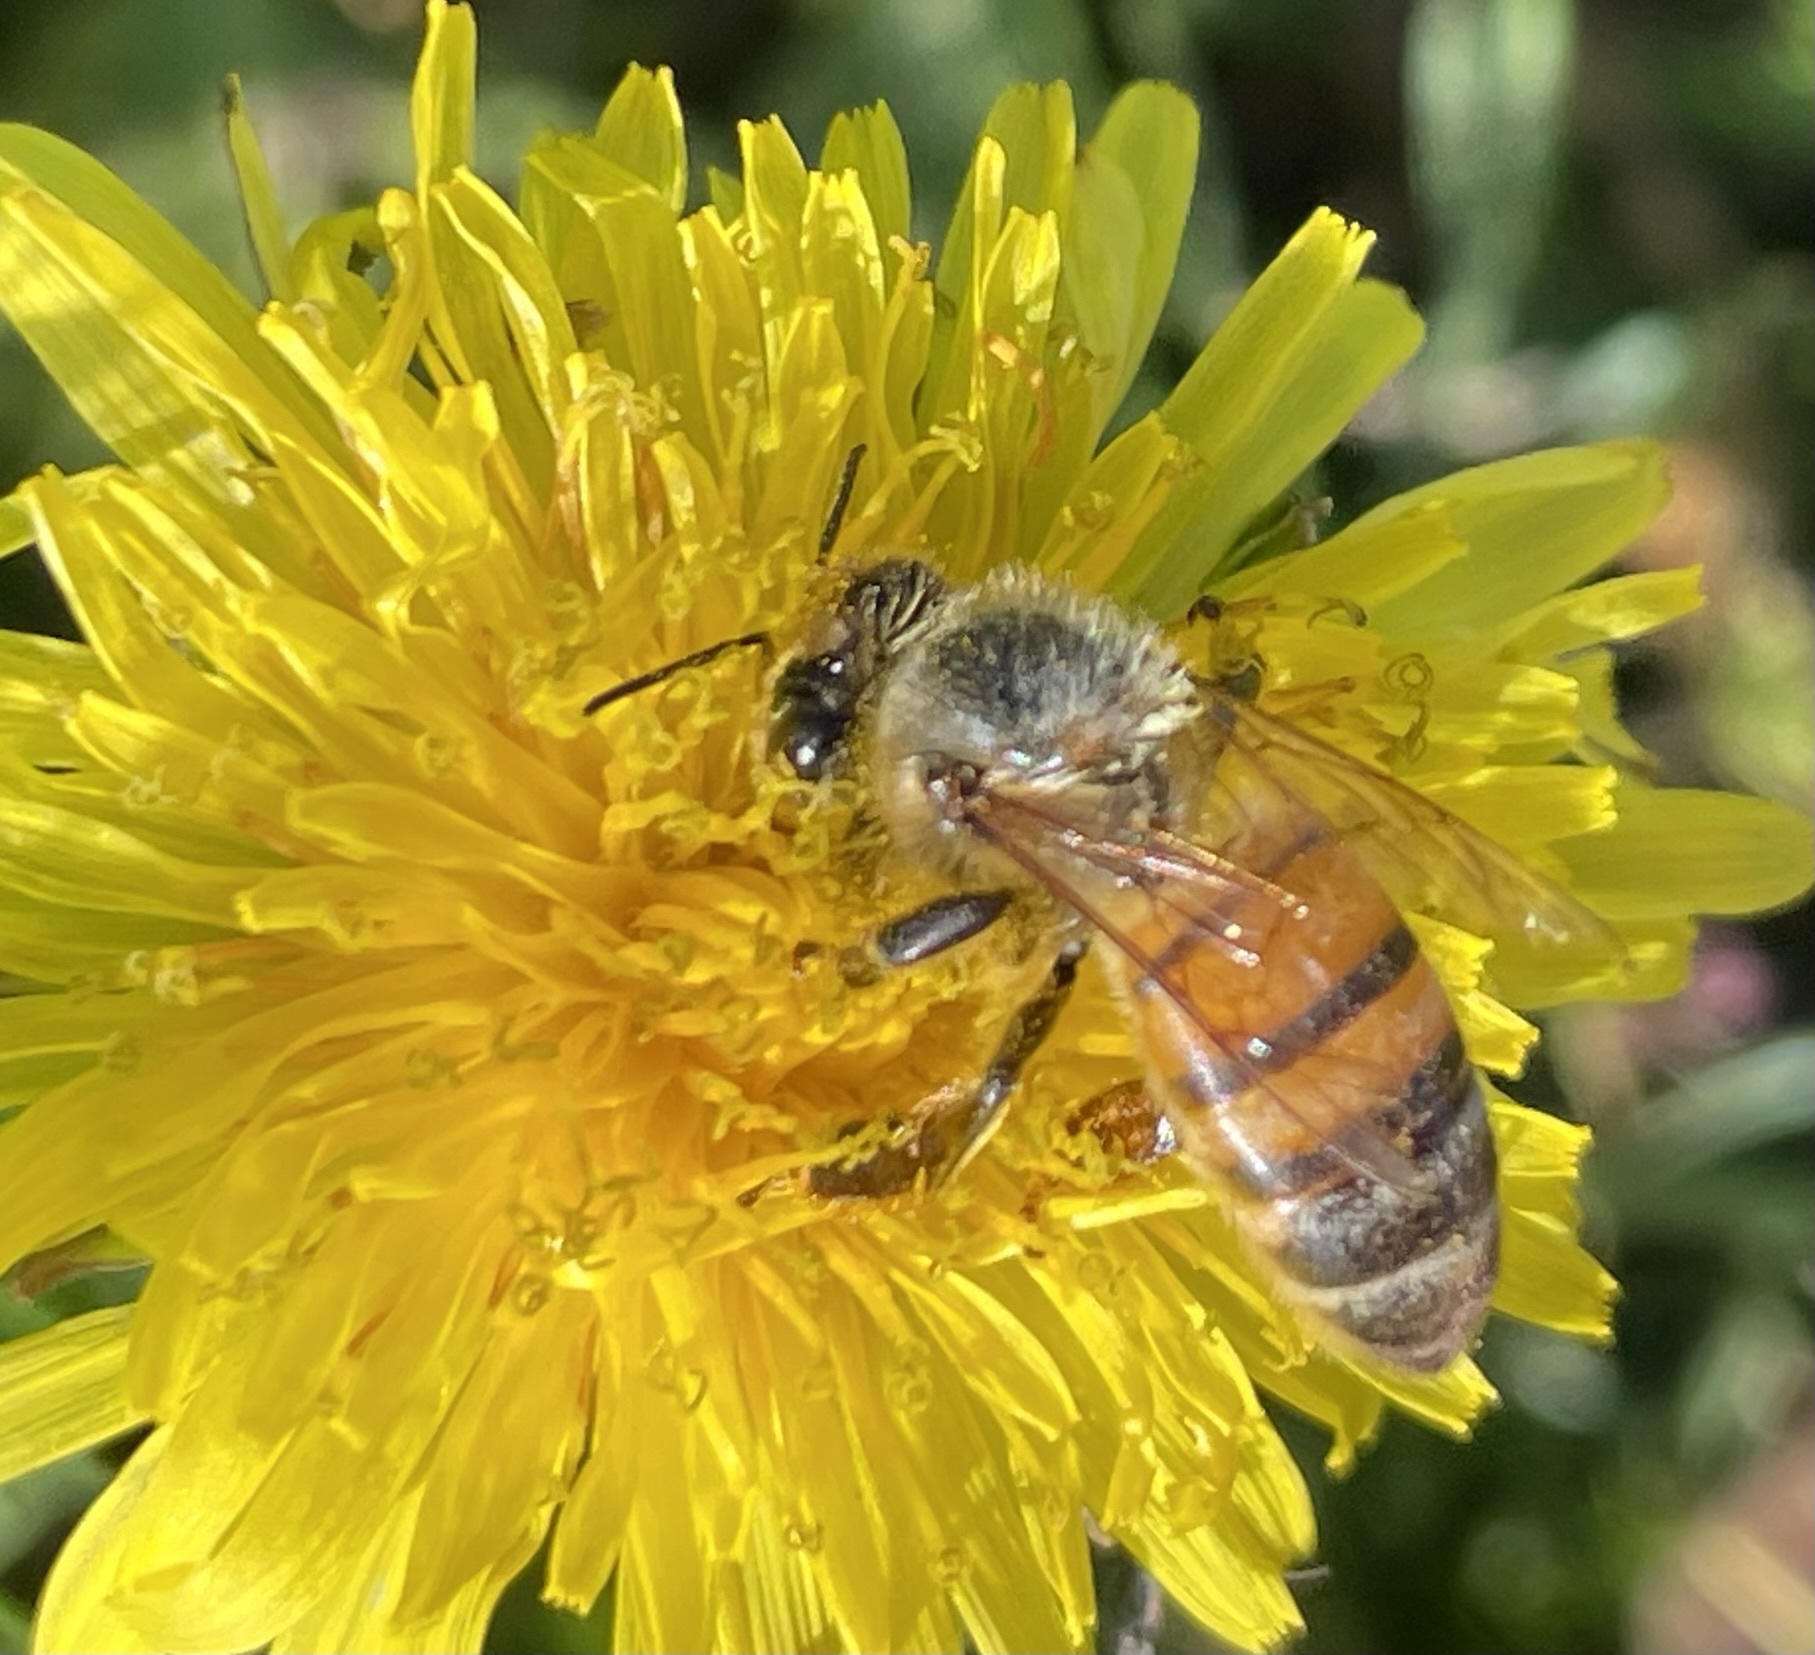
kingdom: Animalia
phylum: Arthropoda
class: Insecta
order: Hymenoptera
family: Apidae
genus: Apis
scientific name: Apis mellifera
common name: Honey bee
